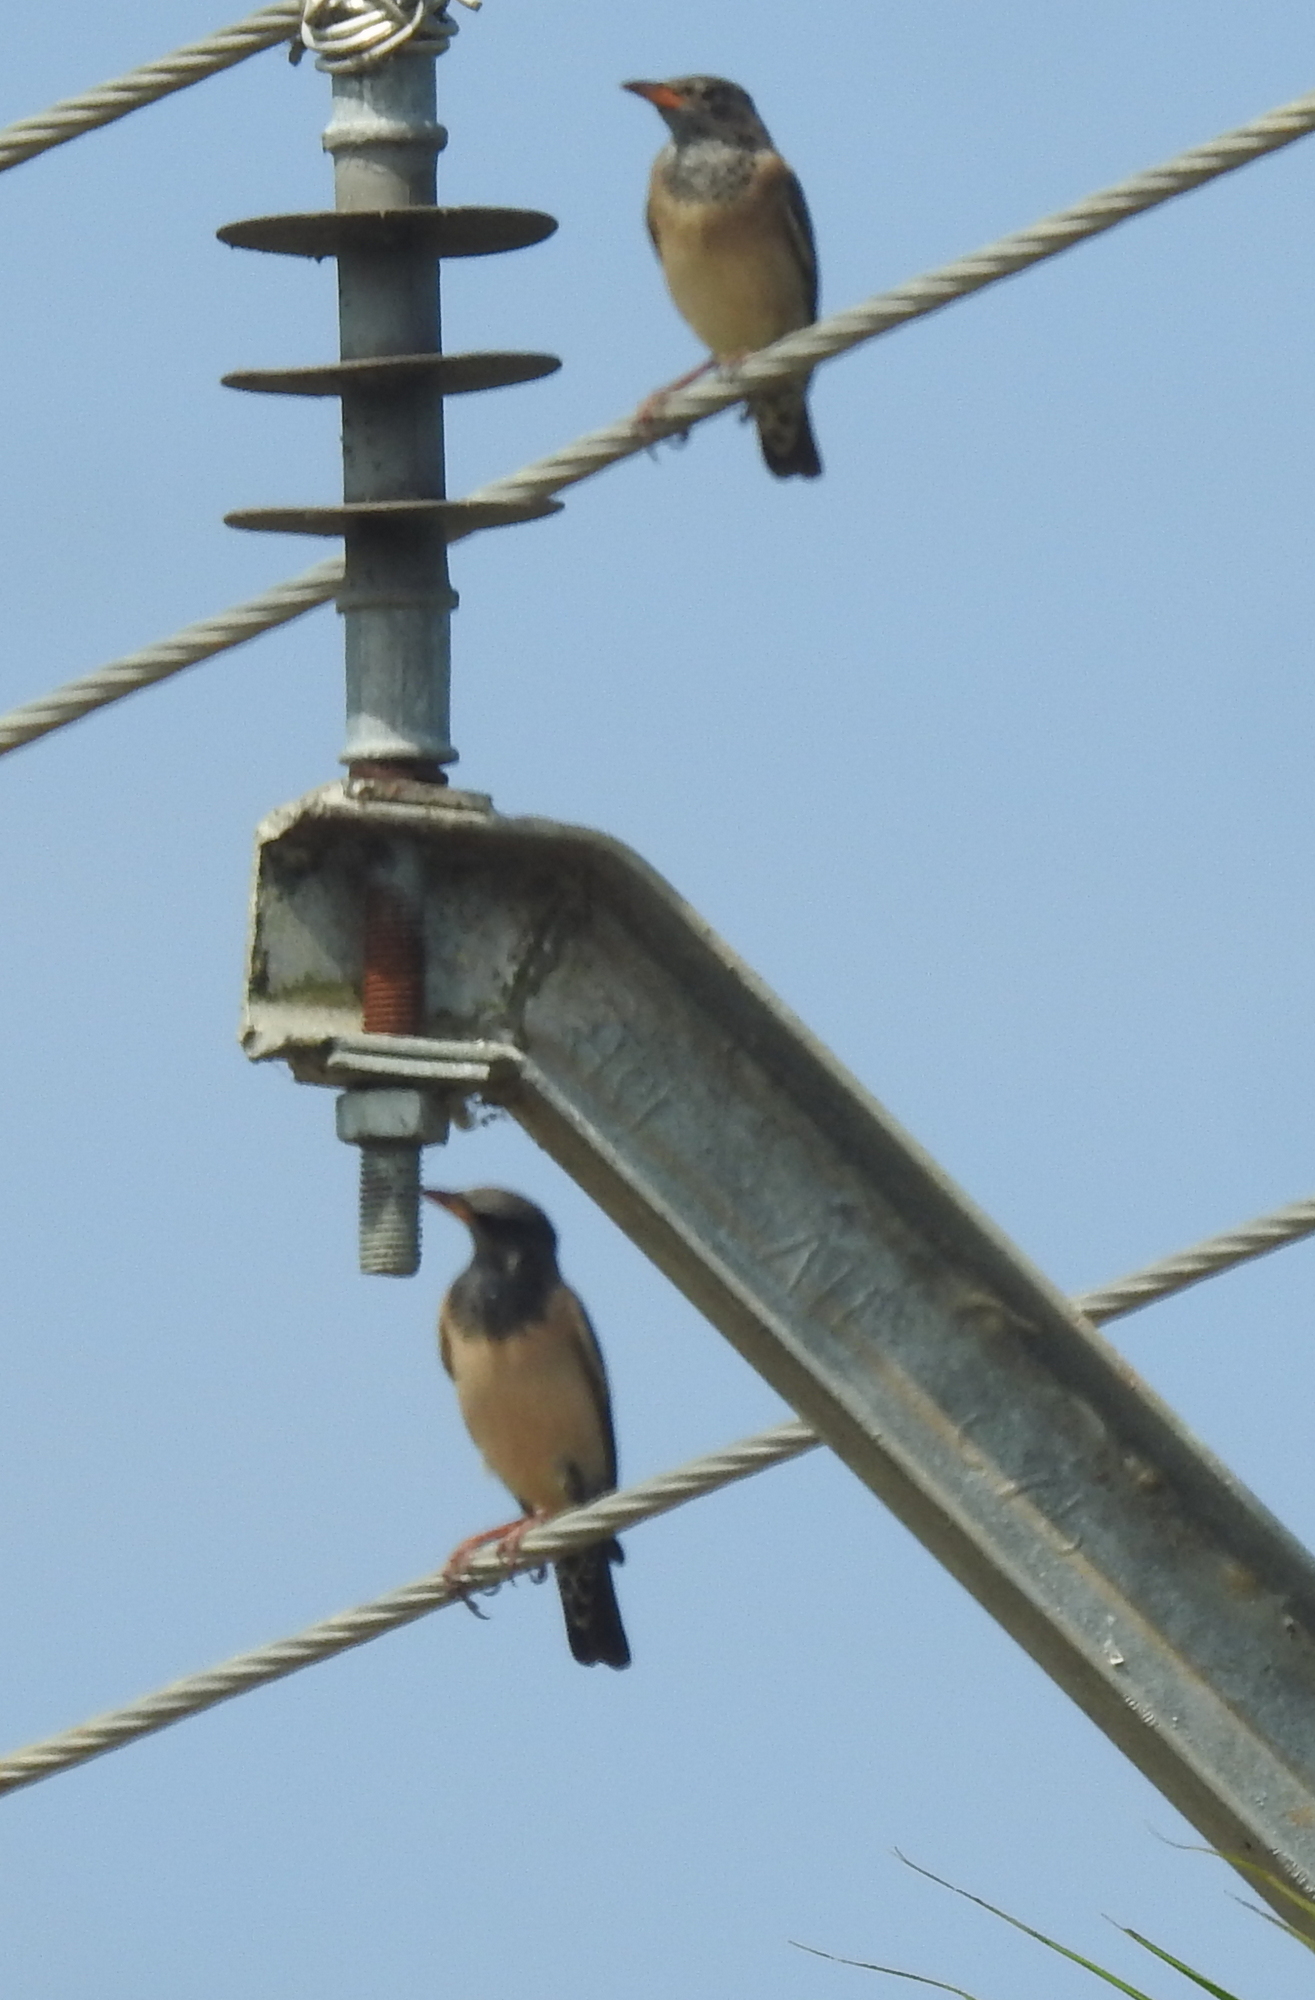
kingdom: Animalia
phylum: Chordata
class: Aves
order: Passeriformes
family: Sturnidae
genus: Pastor
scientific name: Pastor roseus
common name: Rosy starling
